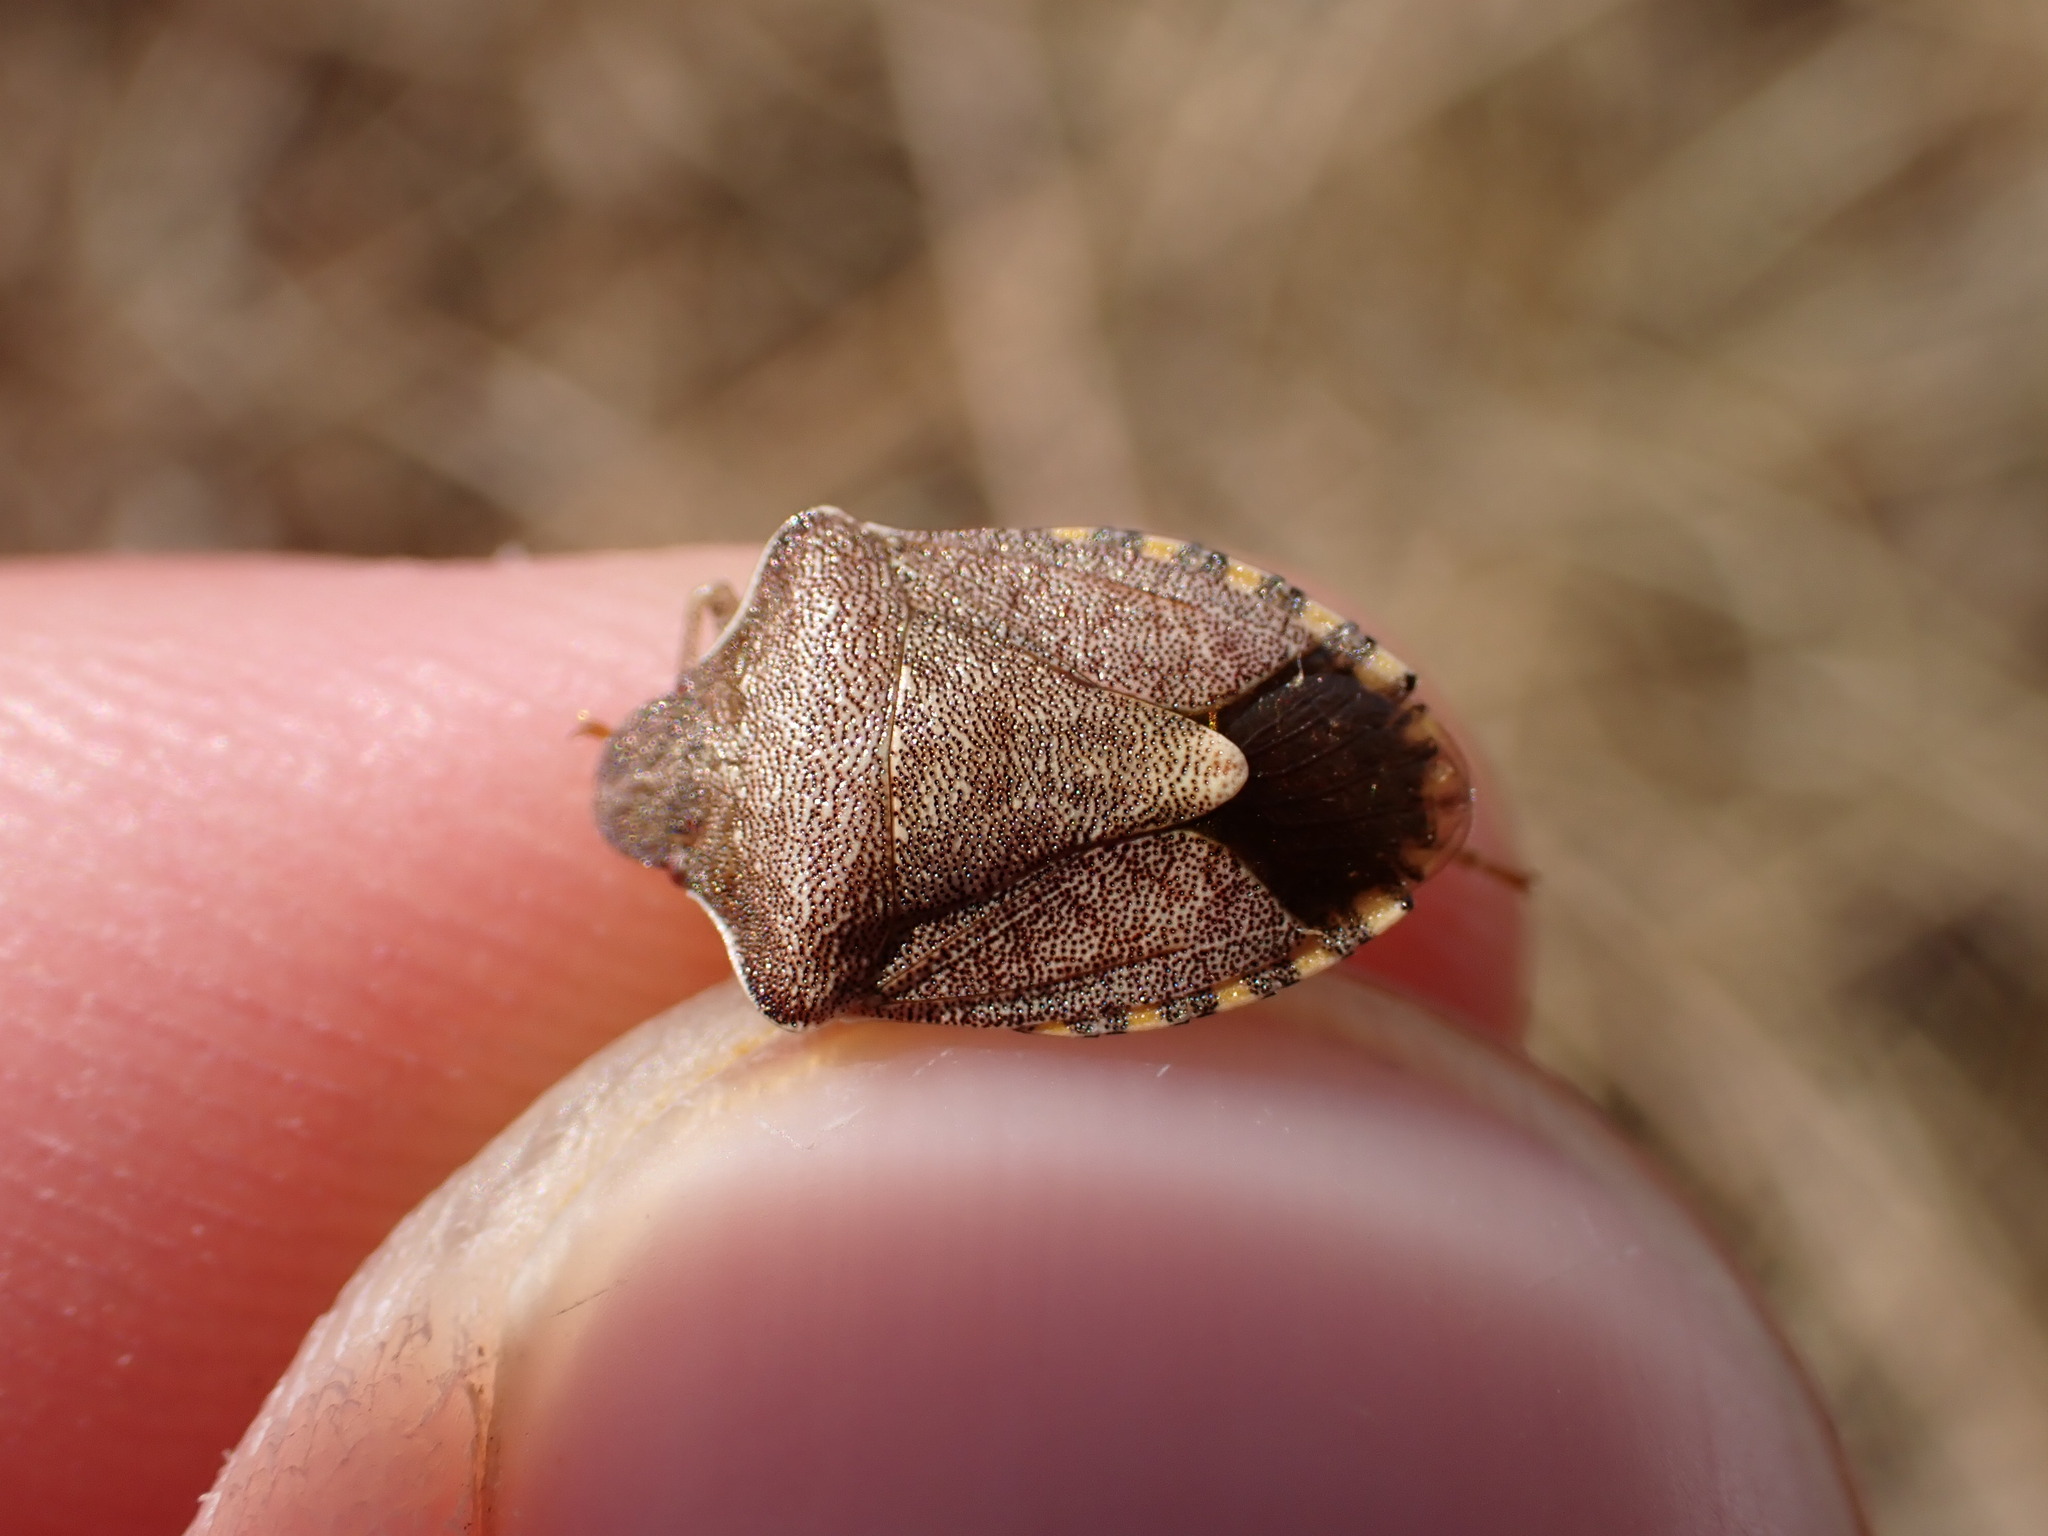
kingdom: Animalia
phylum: Arthropoda
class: Insecta
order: Hemiptera
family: Pentatomidae
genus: Holcostethus
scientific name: Holcostethus strictus
